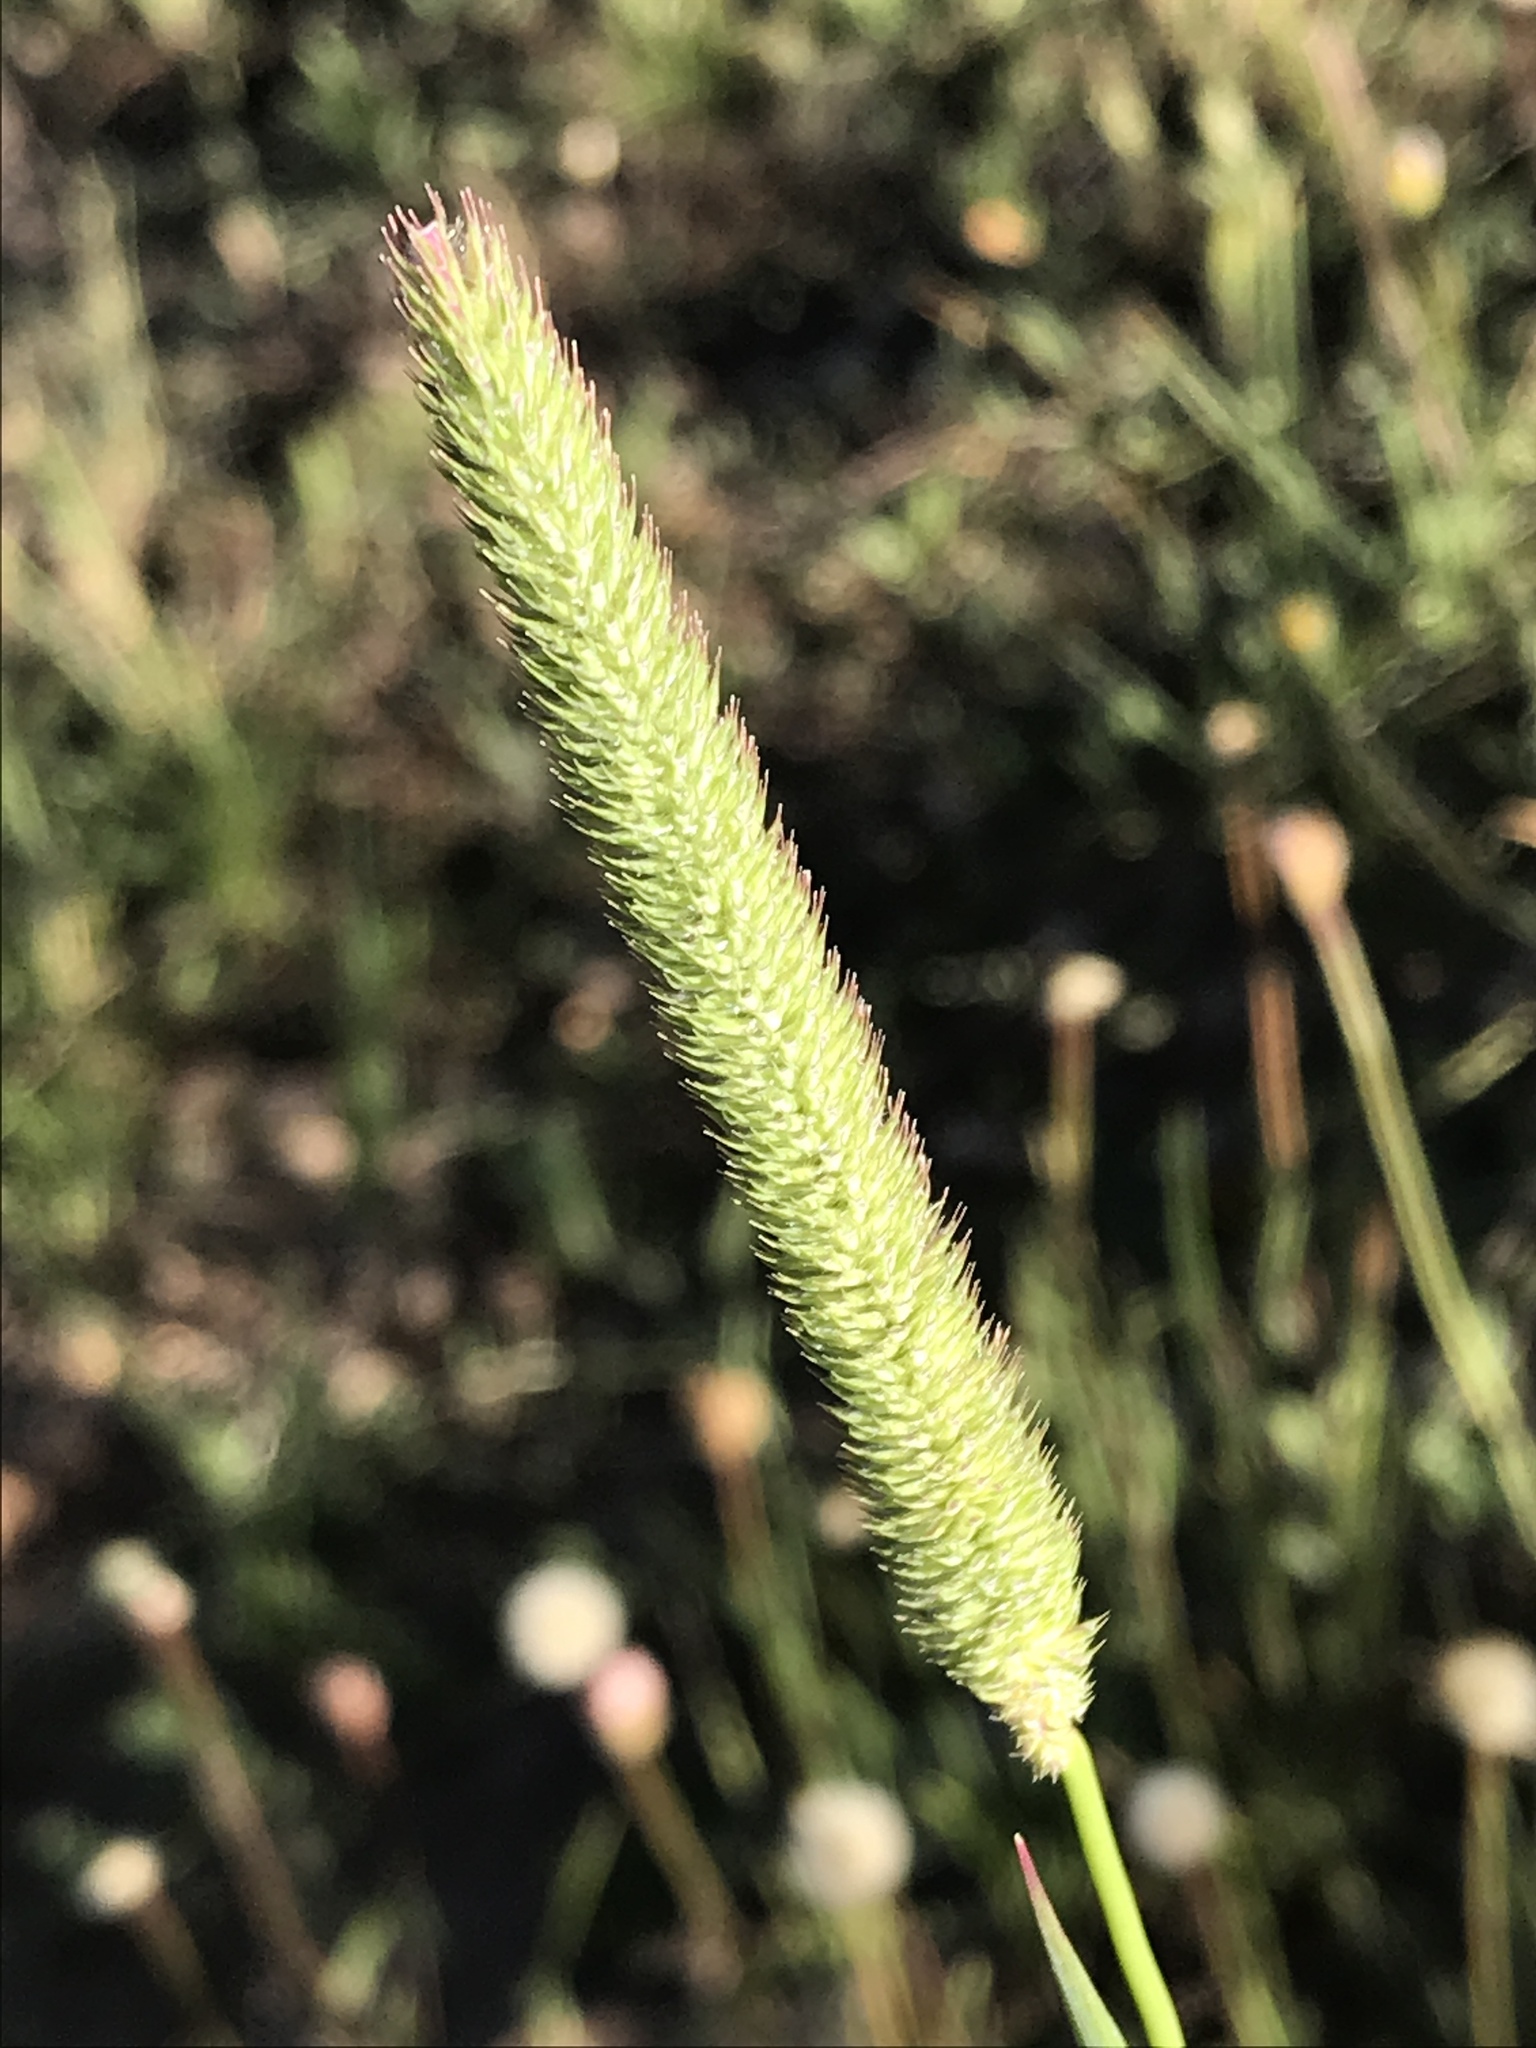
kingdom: Plantae
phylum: Tracheophyta
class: Liliopsida
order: Poales
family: Poaceae
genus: Phleum
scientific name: Phleum pratense
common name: Timothy grass
